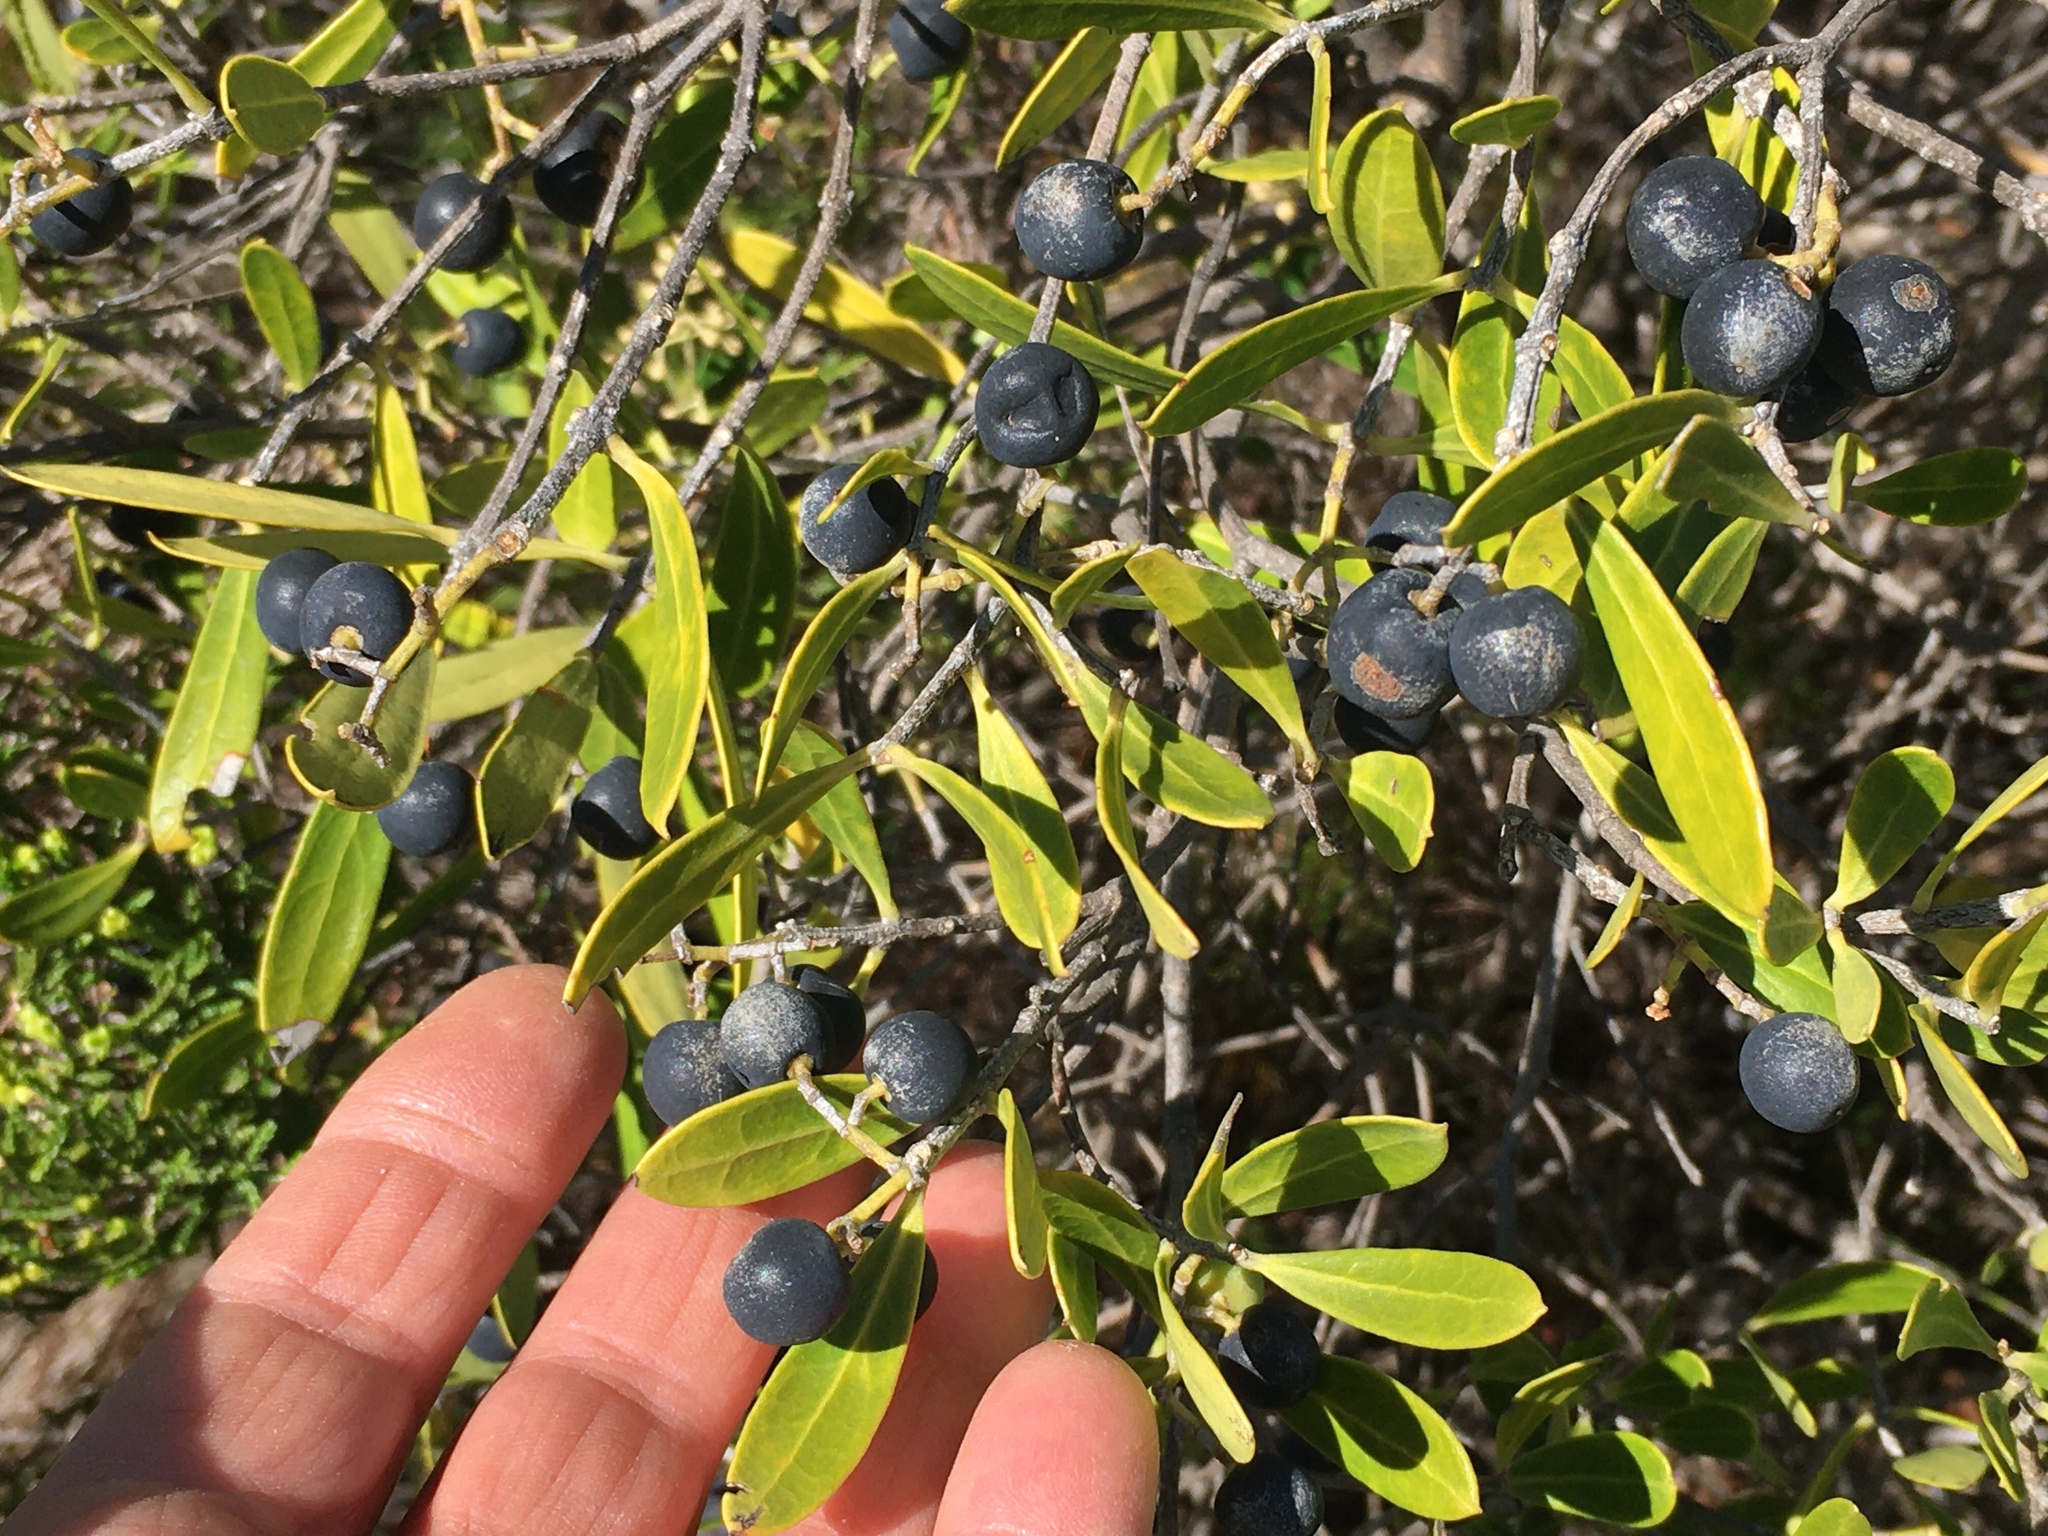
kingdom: Plantae
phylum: Tracheophyta
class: Magnoliopsida
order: Lamiales
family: Oleaceae
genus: Olea
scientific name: Olea europaea
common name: Olive
